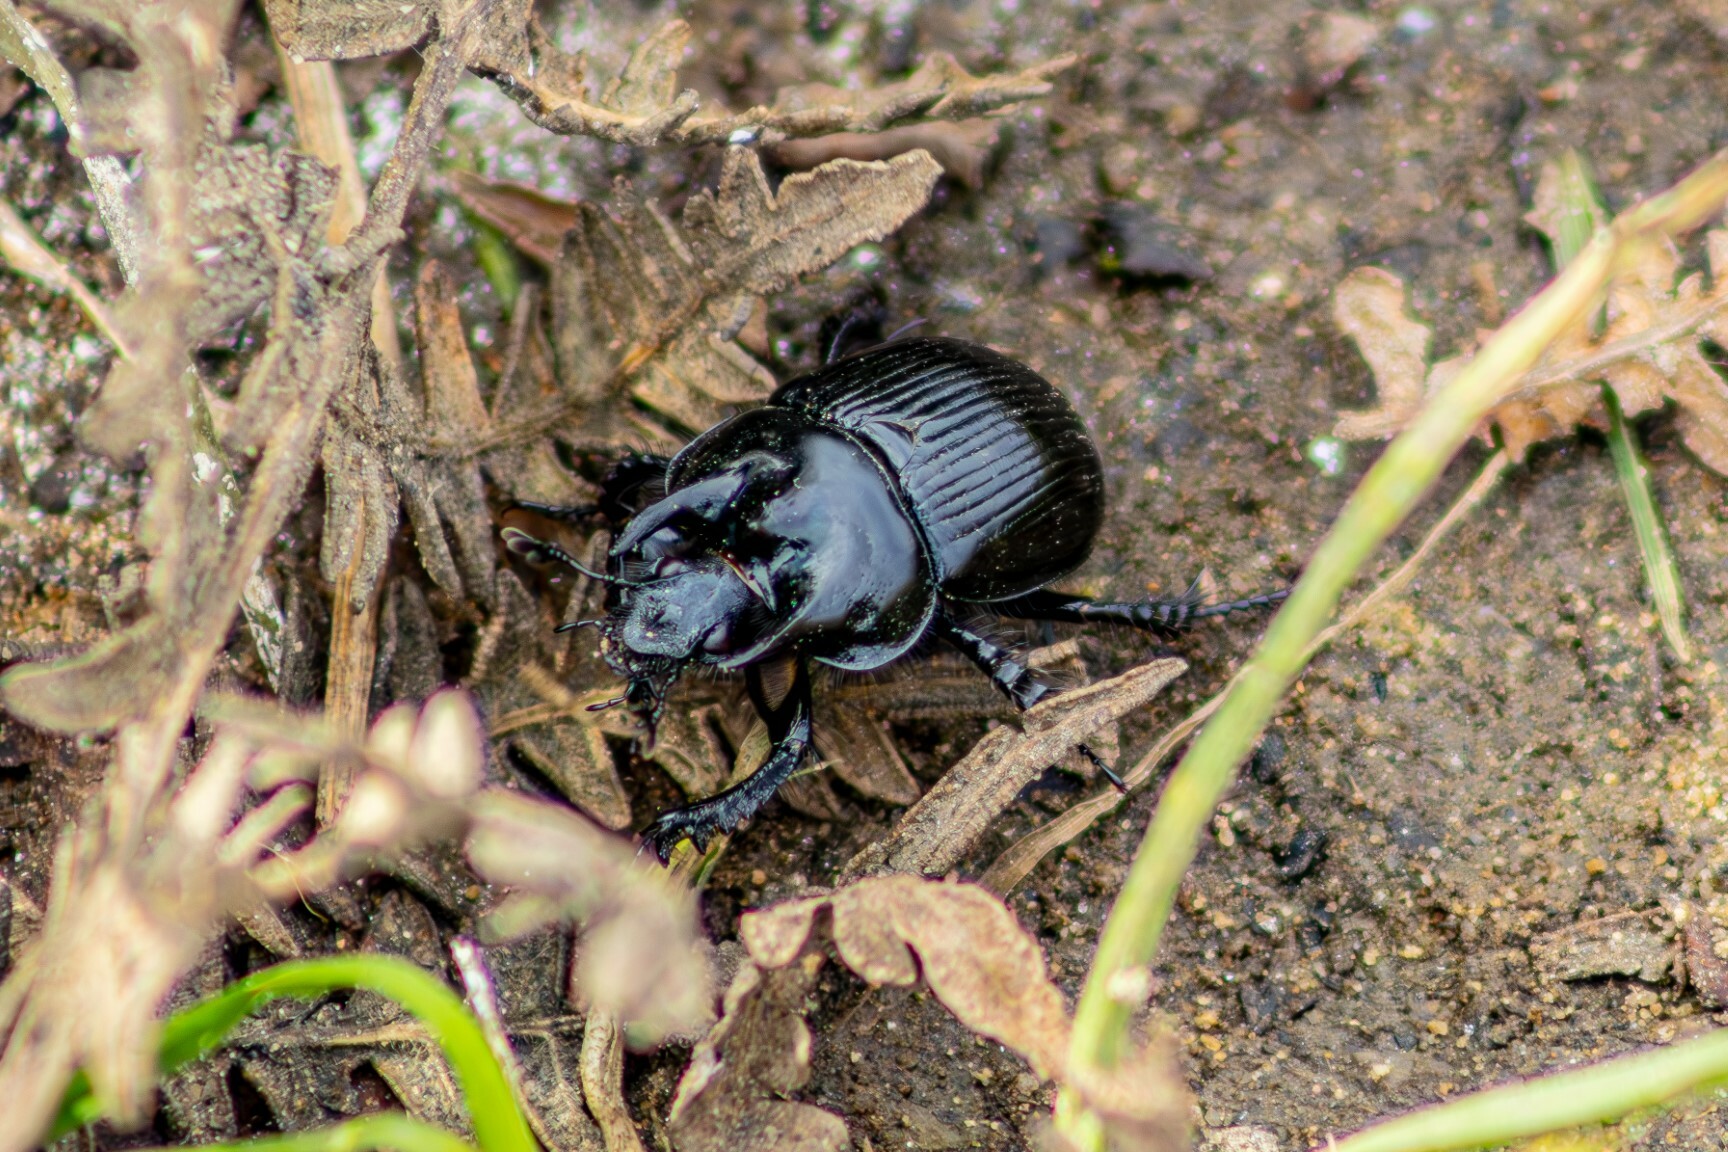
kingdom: Animalia
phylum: Arthropoda
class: Insecta
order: Coleoptera
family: Geotrupidae
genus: Typhaeus
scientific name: Typhaeus typhoeus
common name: Minotaur beetle
